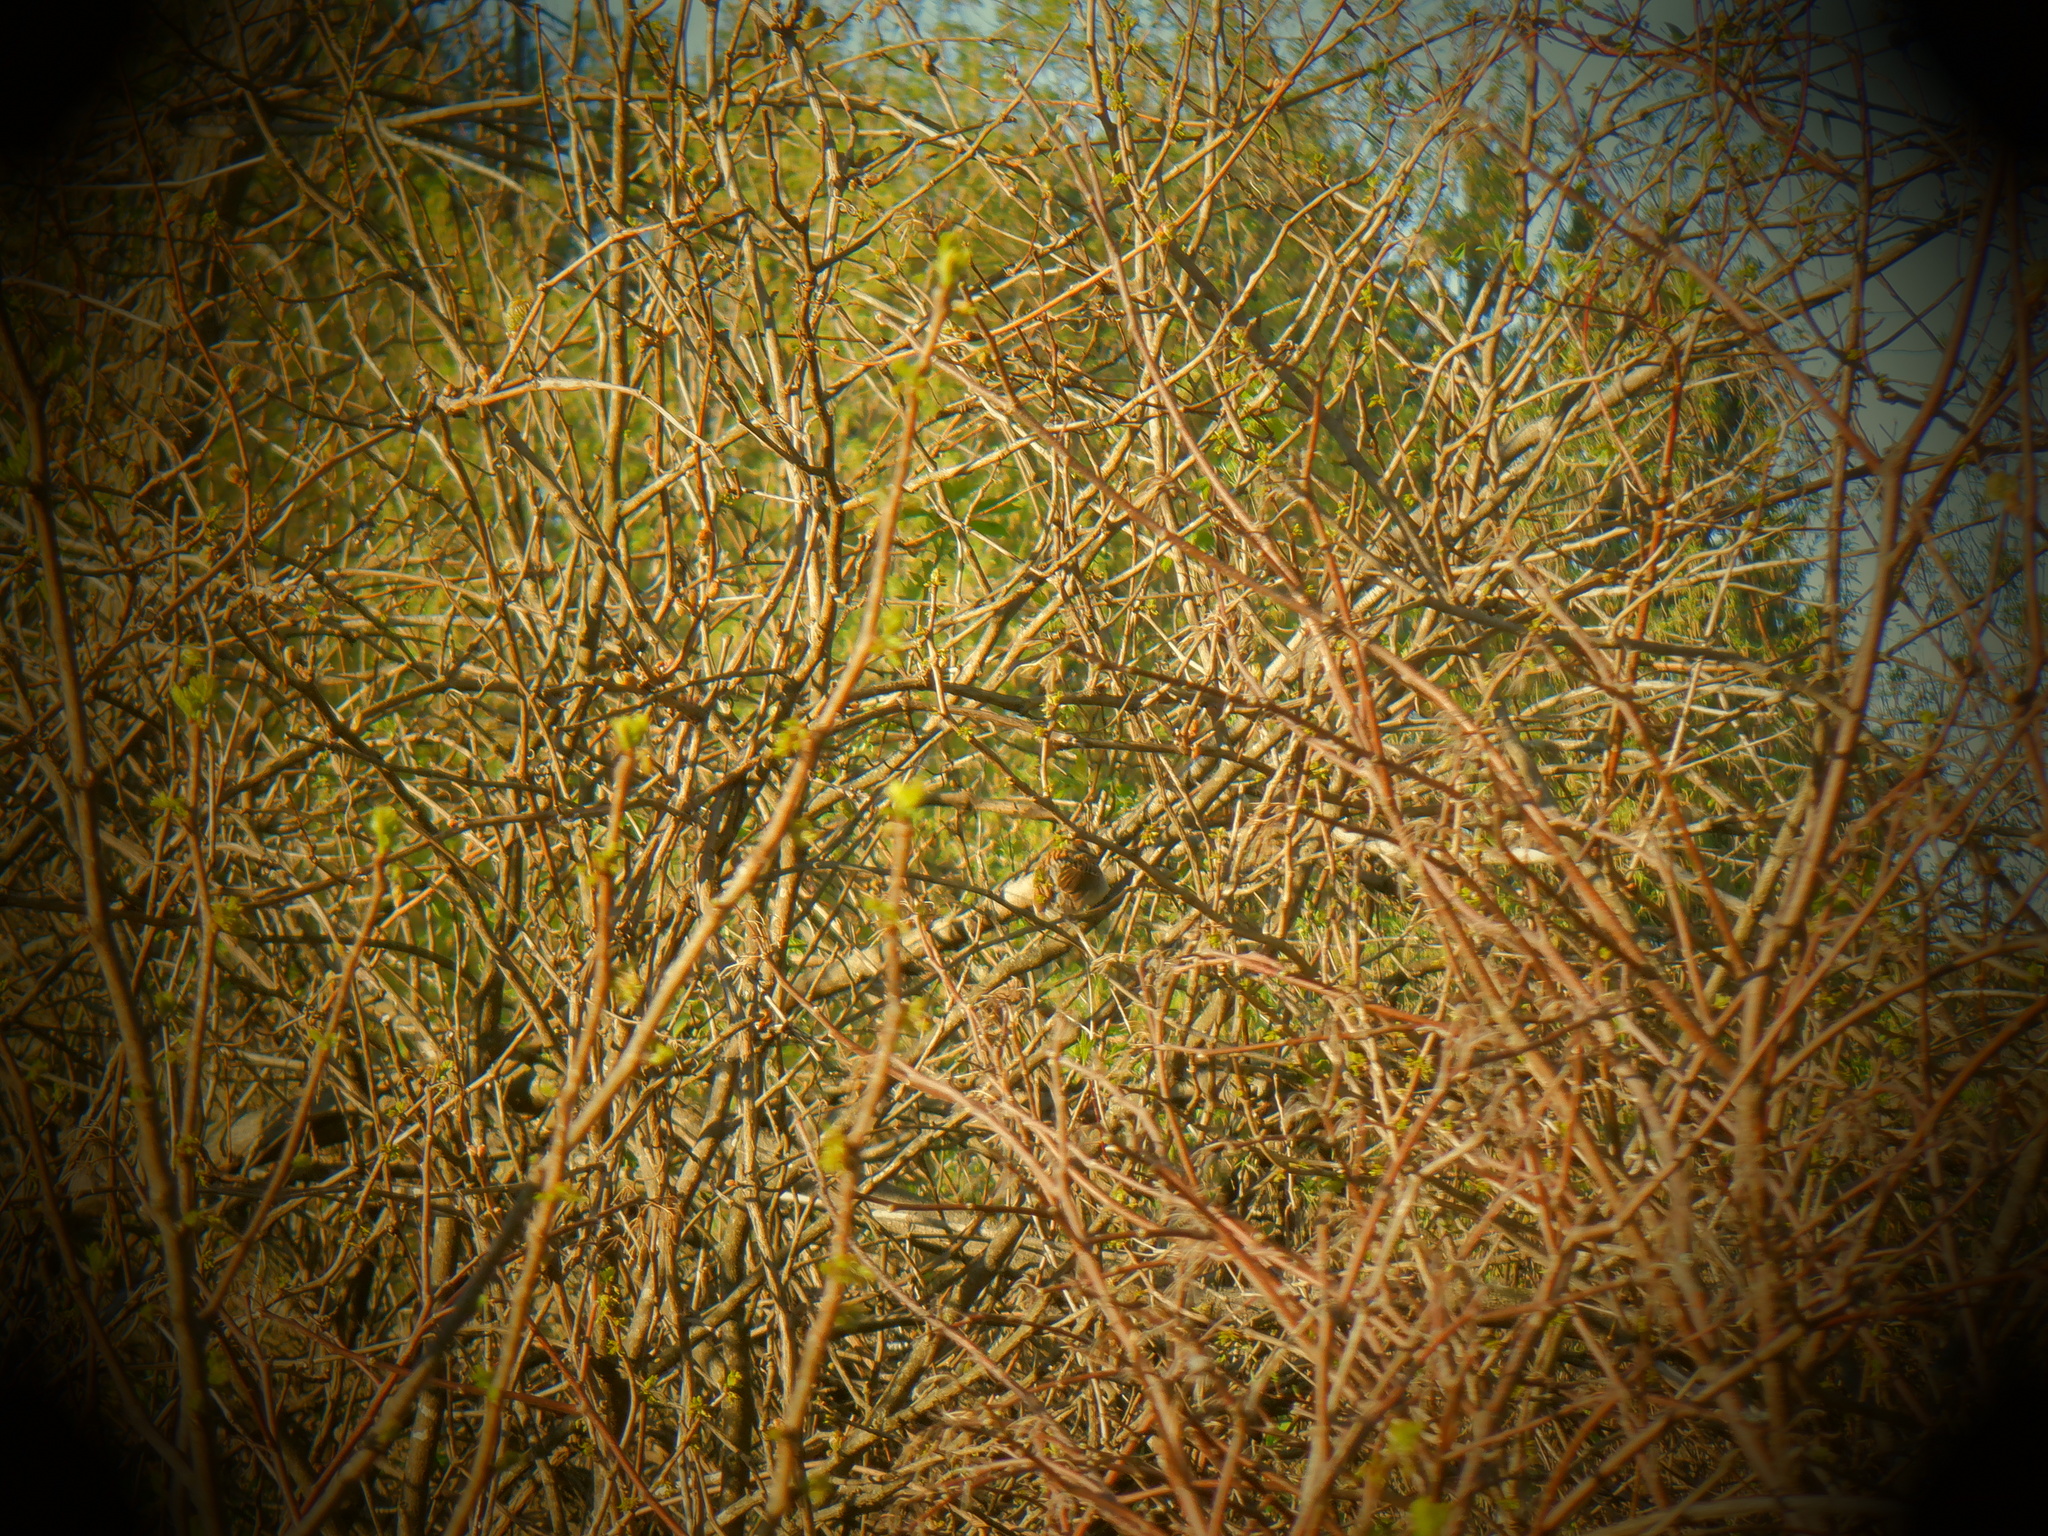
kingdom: Animalia
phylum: Chordata
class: Aves
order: Passeriformes
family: Passerellidae
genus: Spizella
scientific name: Spizella passerina
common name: Chipping sparrow
